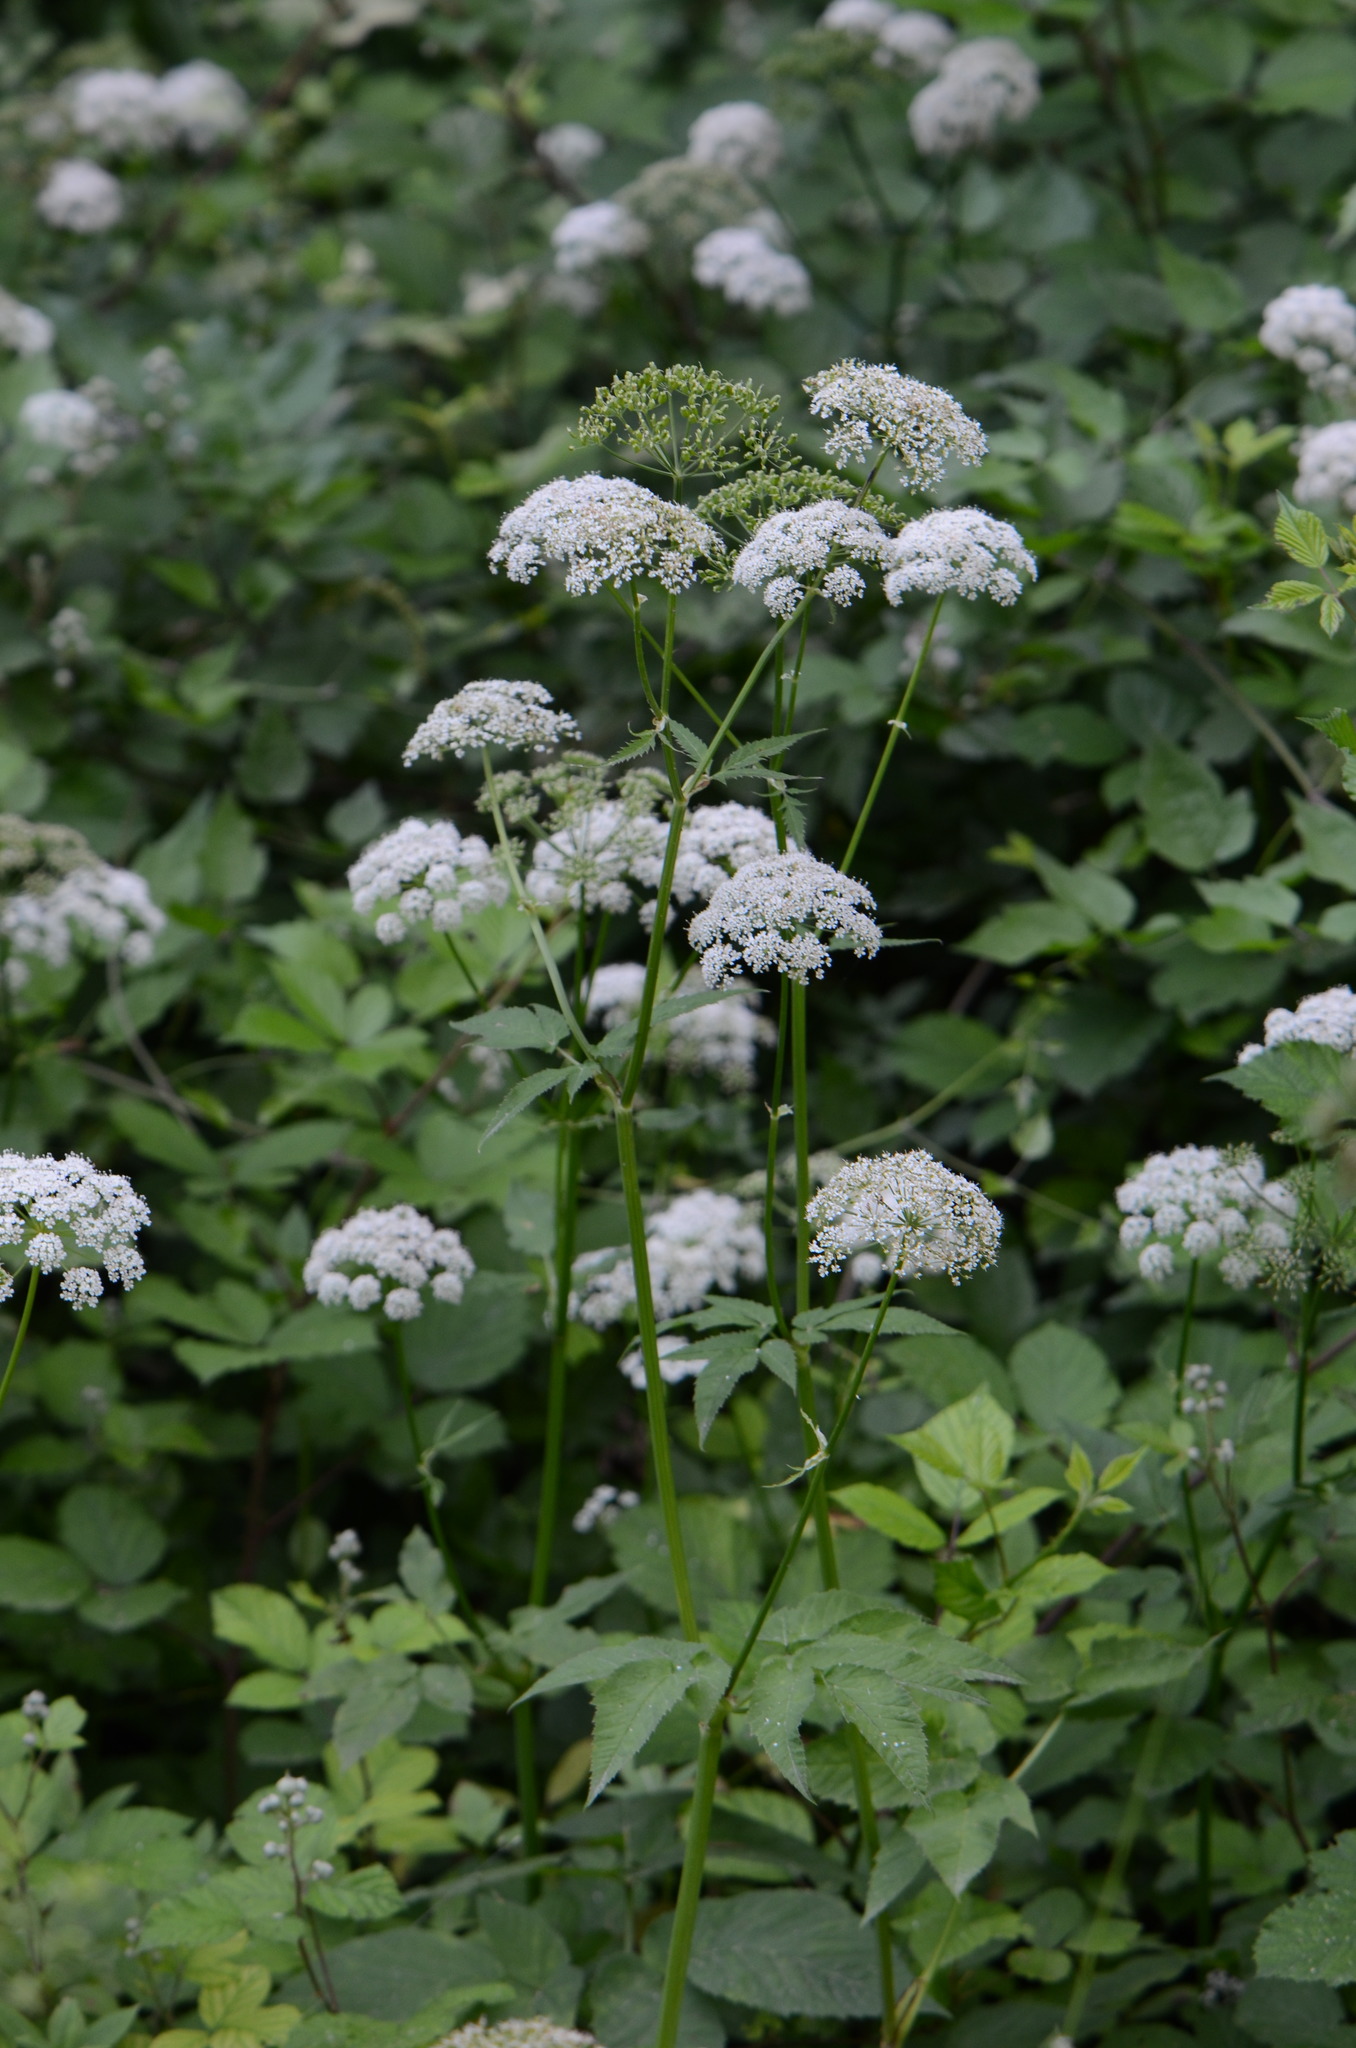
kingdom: Plantae
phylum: Tracheophyta
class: Magnoliopsida
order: Apiales
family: Apiaceae
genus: Aegopodium
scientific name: Aegopodium podagraria
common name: Ground-elder
